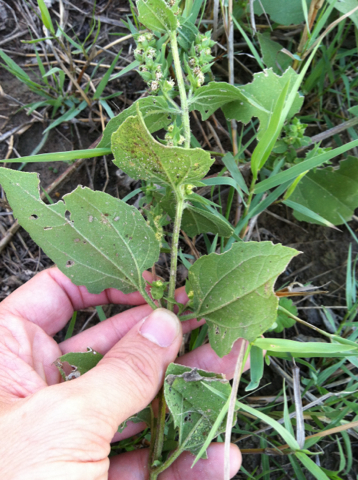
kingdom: Plantae
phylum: Tracheophyta
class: Magnoliopsida
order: Asterales
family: Asteraceae
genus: Iva
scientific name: Iva annua
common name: Marsh-elder
